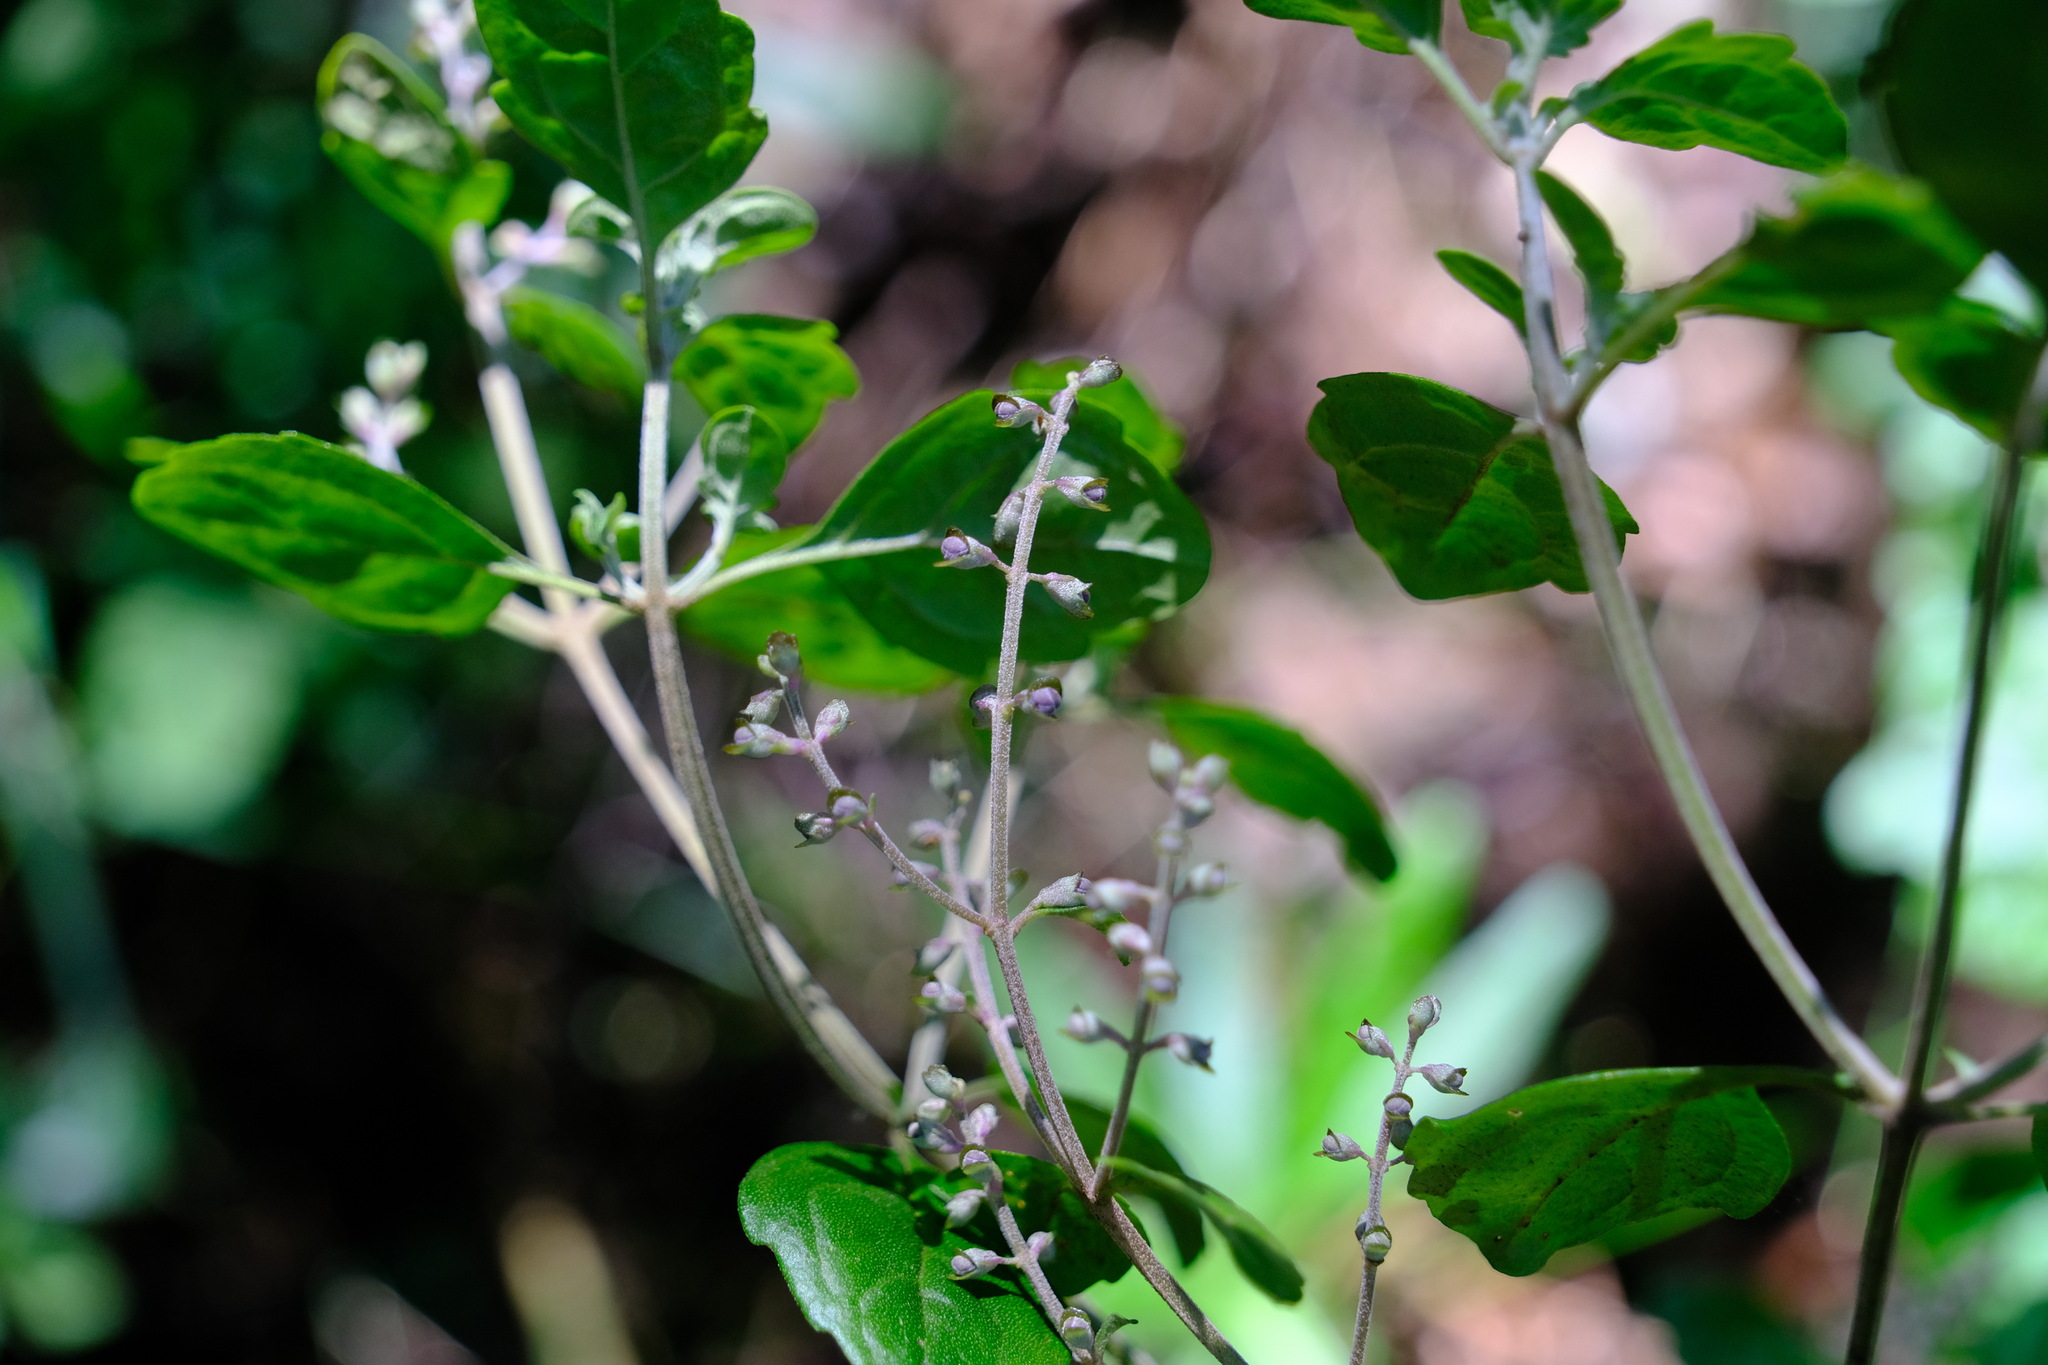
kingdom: Plantae
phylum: Tracheophyta
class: Magnoliopsida
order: Lamiales
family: Lamiaceae
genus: Prostanthera
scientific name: Prostanthera melissifolia
